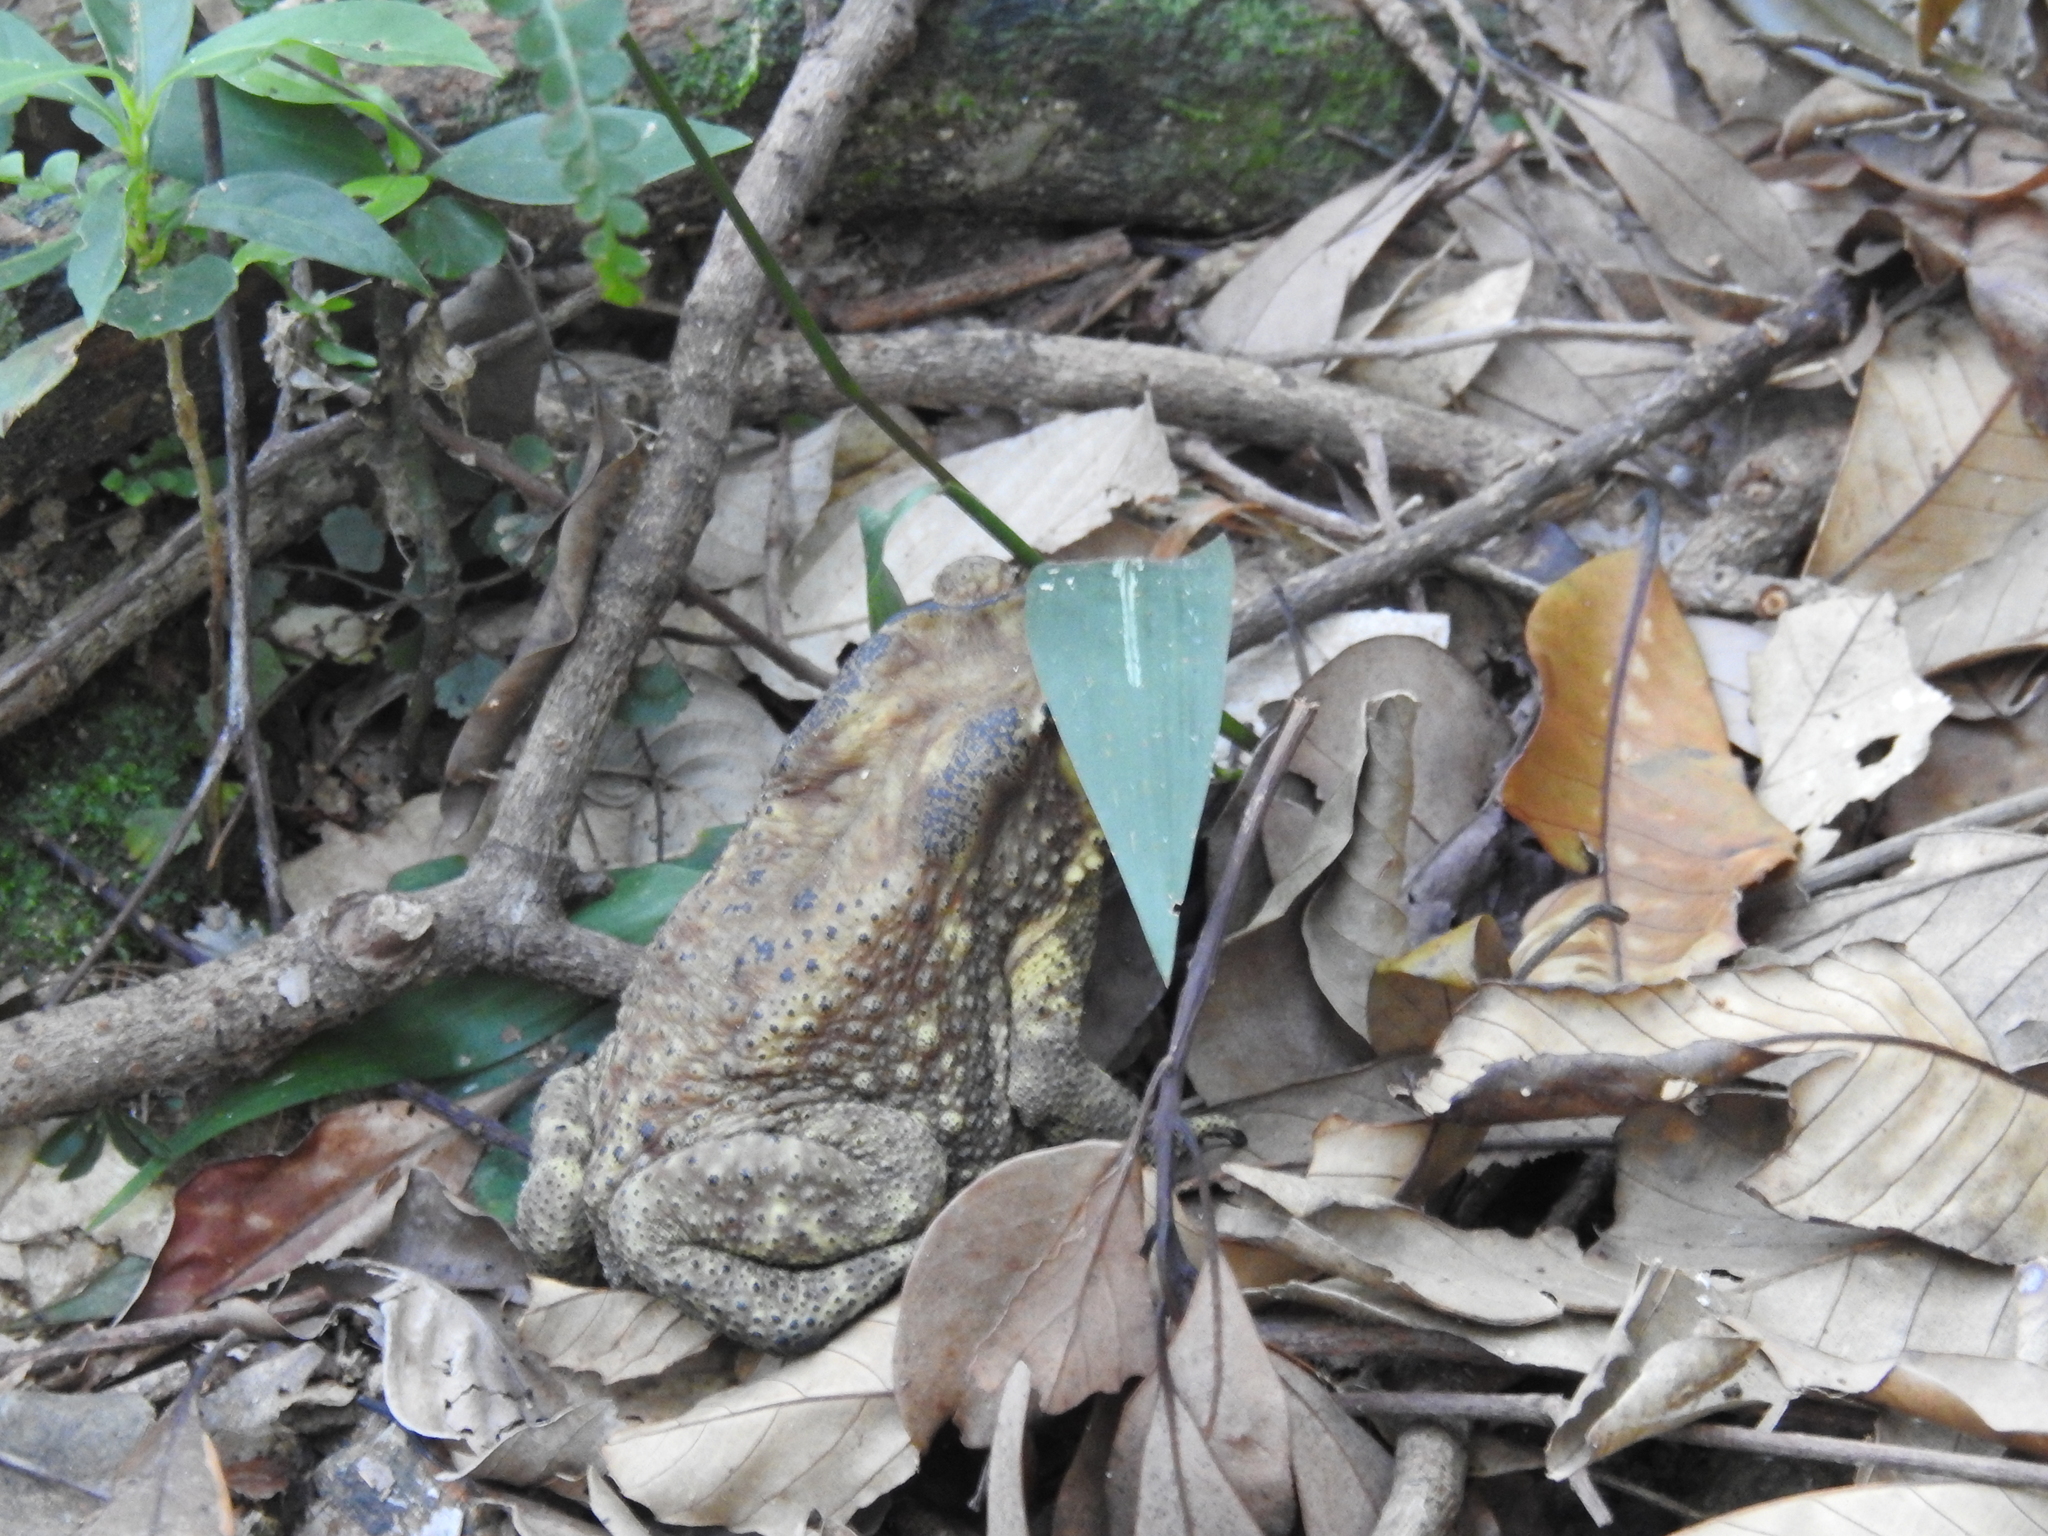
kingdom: Animalia
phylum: Chordata
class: Amphibia
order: Anura
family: Bufonidae
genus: Duttaphrynus
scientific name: Duttaphrynus melanostictus
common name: Common sunda toad
